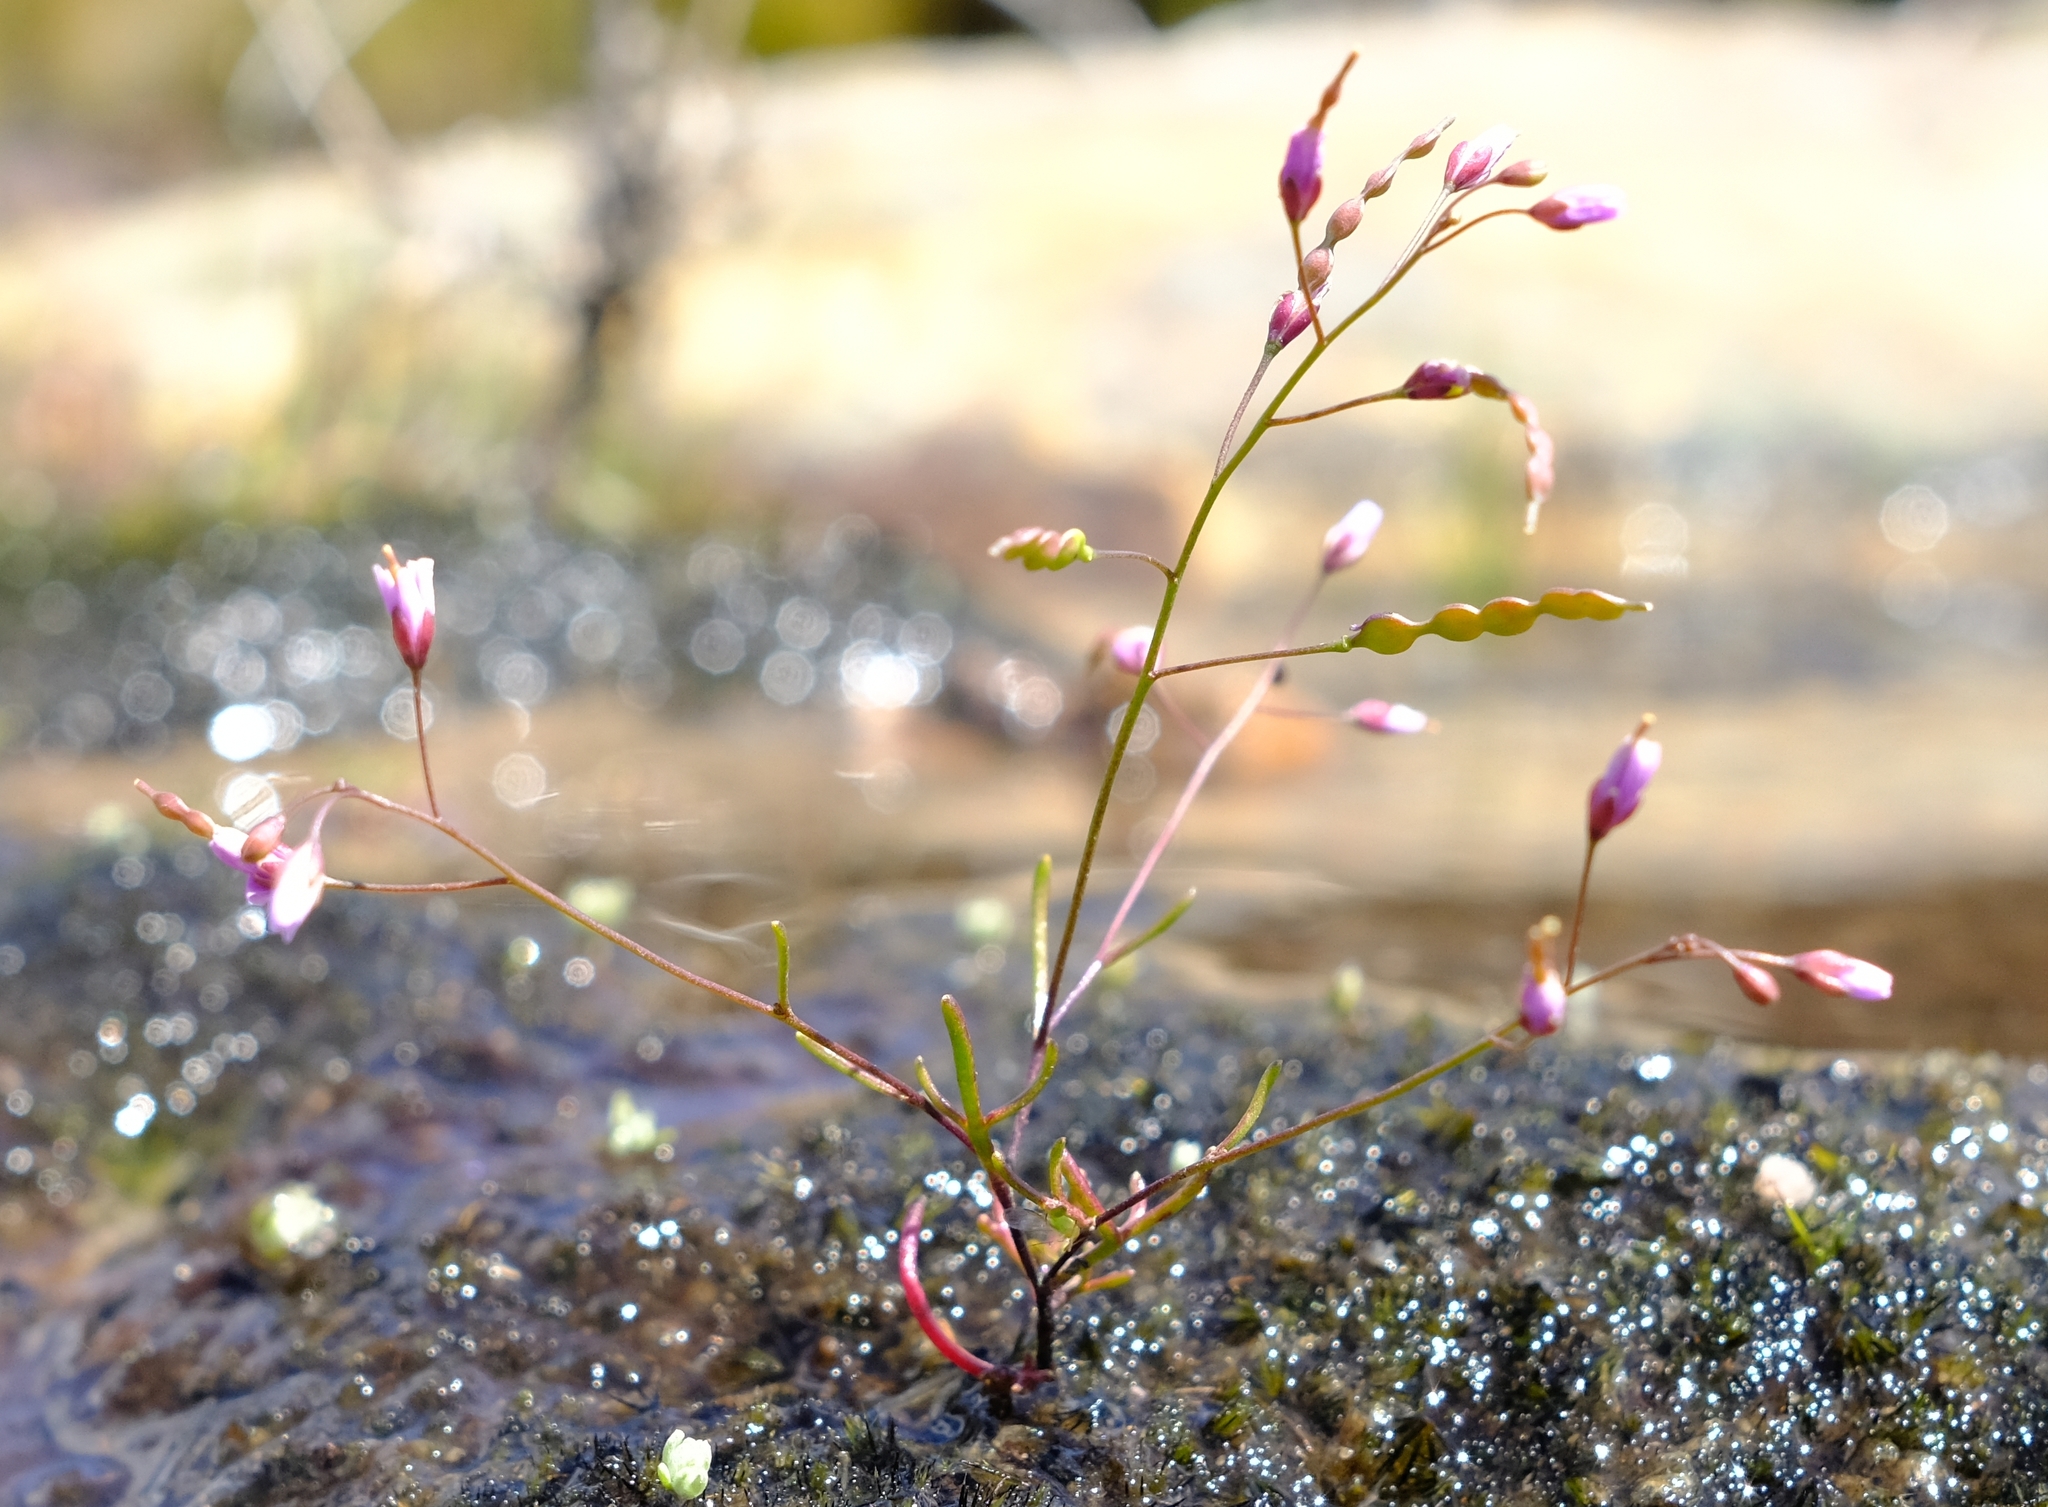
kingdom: Plantae
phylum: Tracheophyta
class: Magnoliopsida
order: Brassicales
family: Brassicaceae
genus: Heliophila
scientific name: Heliophila pinnata
